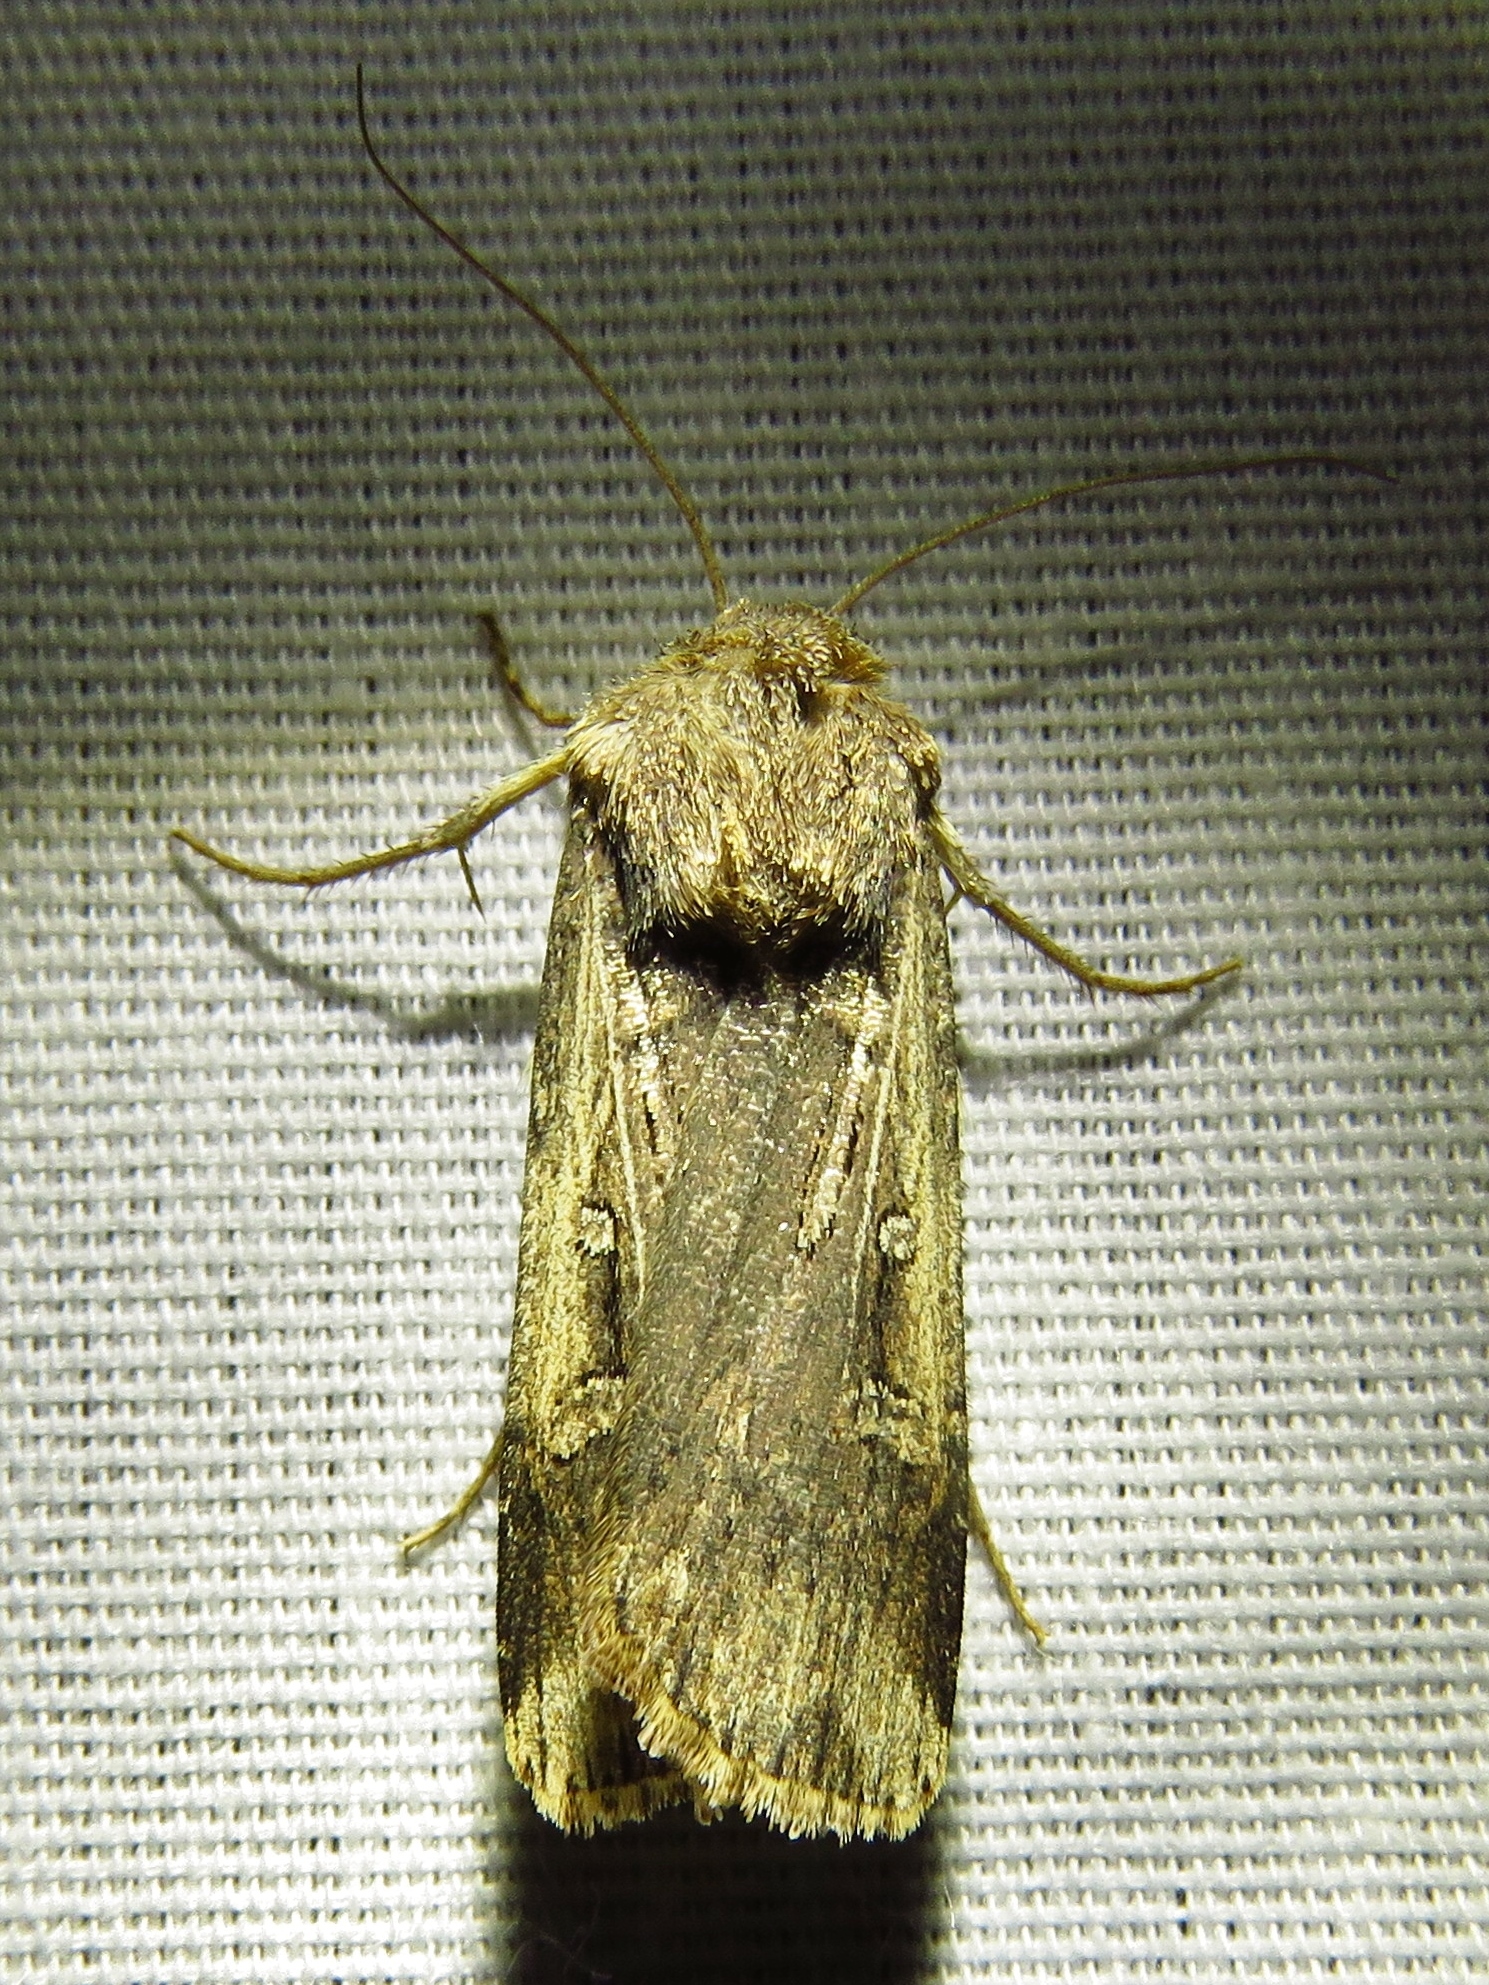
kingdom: Animalia
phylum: Arthropoda
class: Insecta
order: Lepidoptera
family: Noctuidae
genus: Feltia
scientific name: Feltia subterranea
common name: Granulate cutworm
